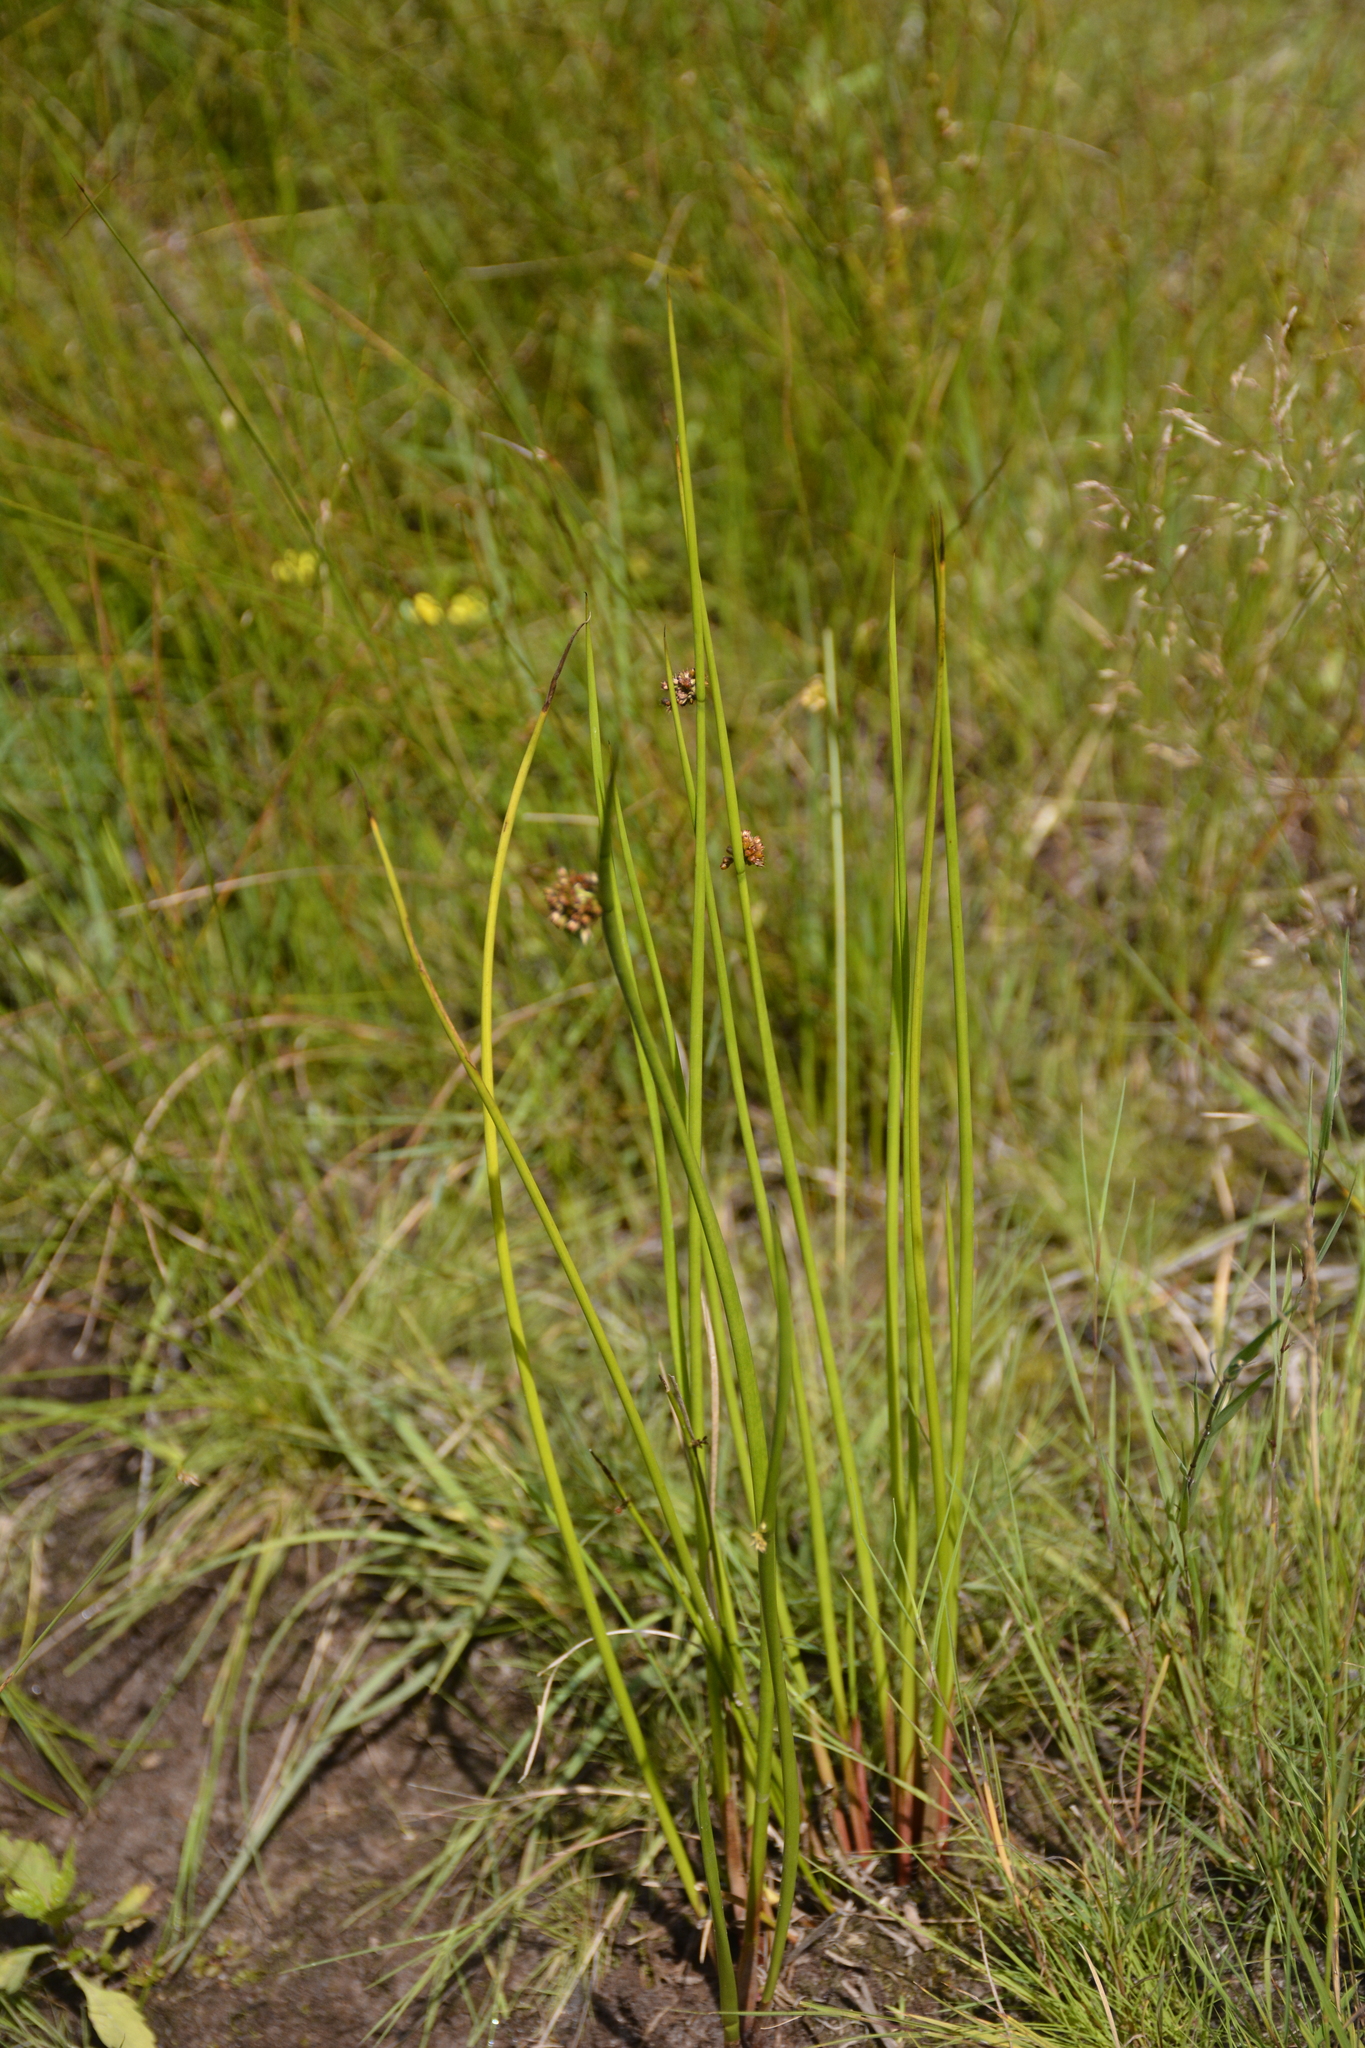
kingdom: Plantae
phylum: Tracheophyta
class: Liliopsida
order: Poales
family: Juncaceae
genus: Juncus
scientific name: Juncus effusus
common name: Soft rush
